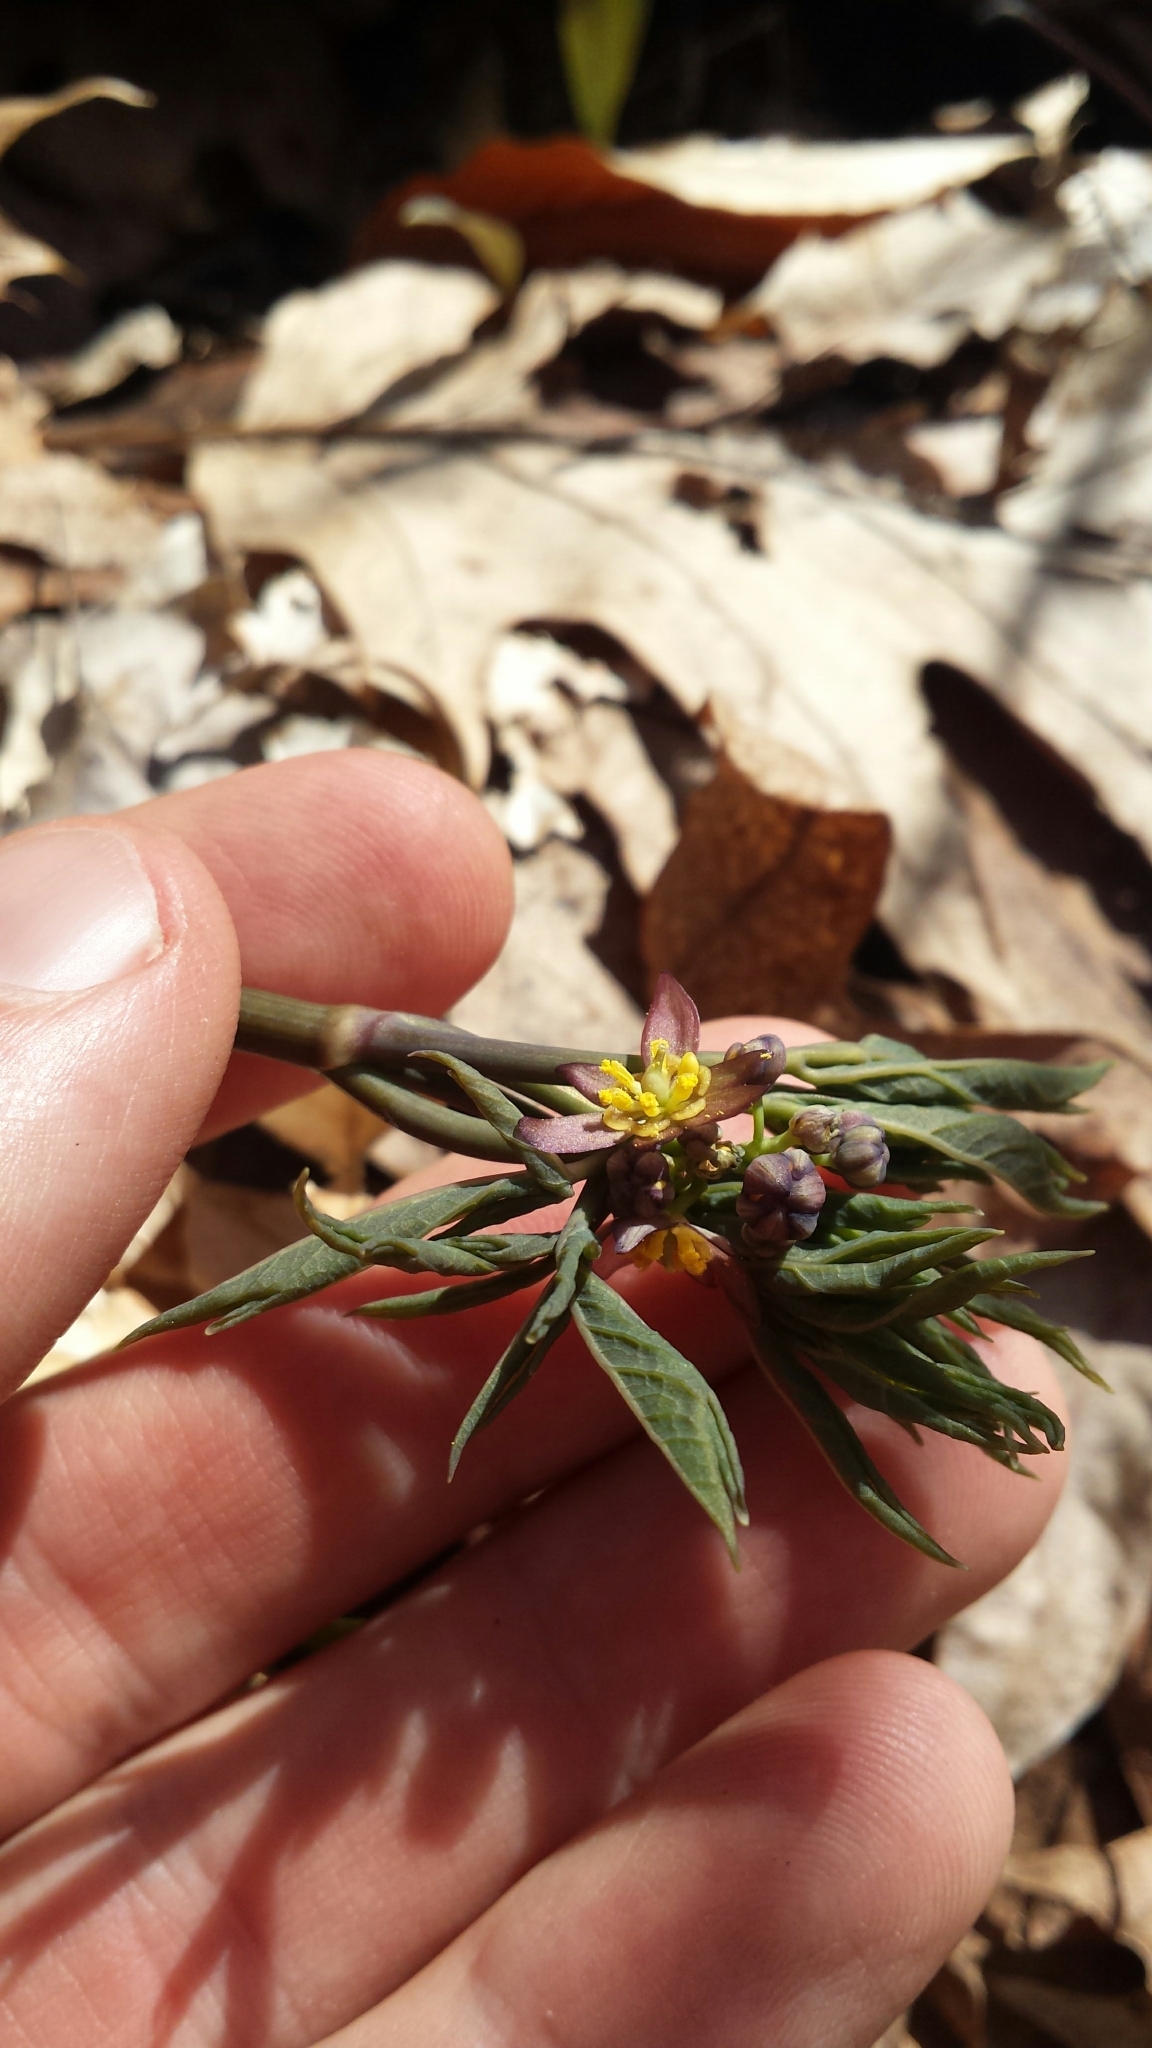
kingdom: Plantae
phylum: Tracheophyta
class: Magnoliopsida
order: Ranunculales
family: Berberidaceae
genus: Caulophyllum
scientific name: Caulophyllum giganteum
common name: Blue cohosh
